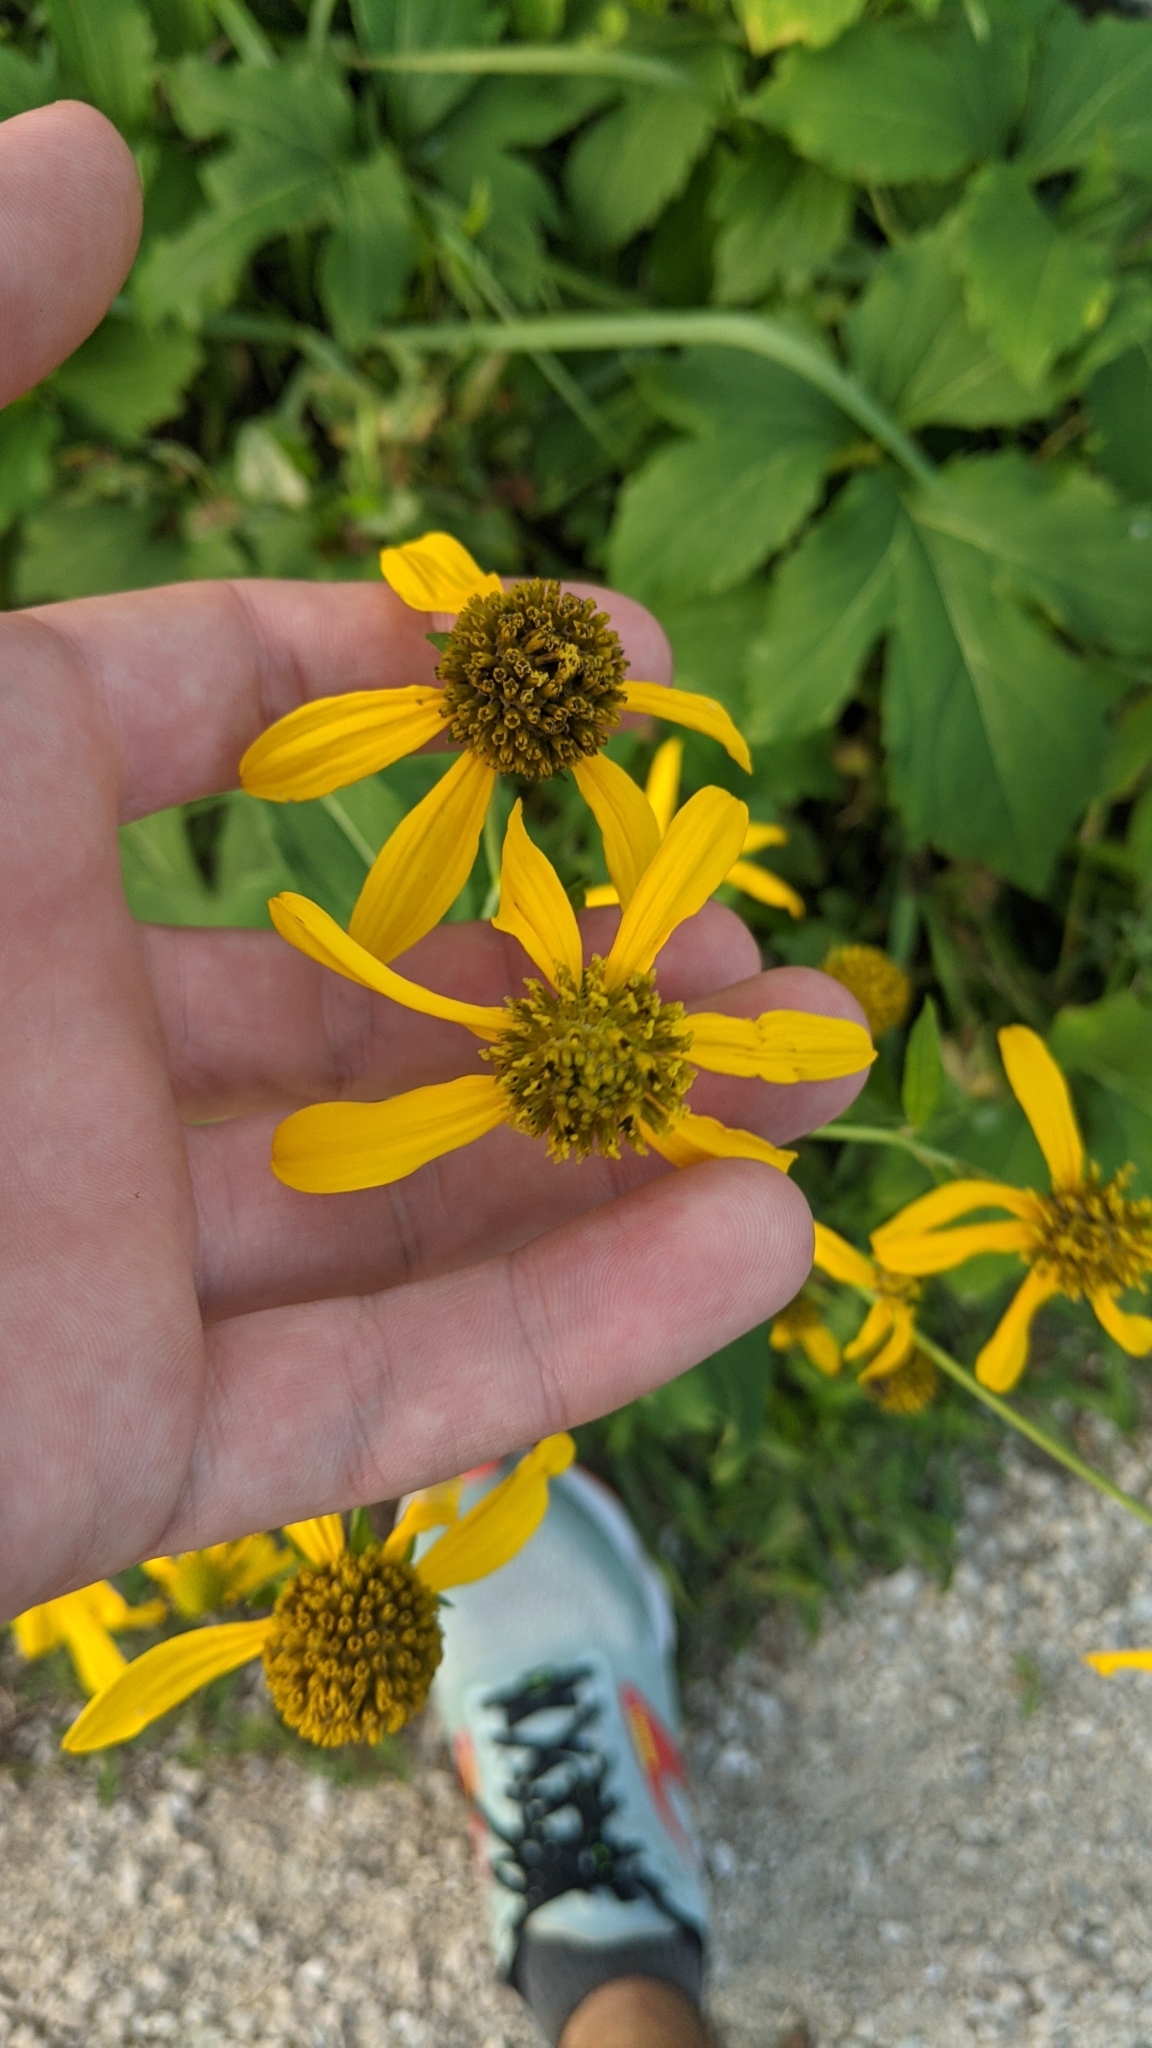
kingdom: Plantae
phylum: Tracheophyta
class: Magnoliopsida
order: Asterales
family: Asteraceae
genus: Rudbeckia
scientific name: Rudbeckia laciniata
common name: Coneflower
